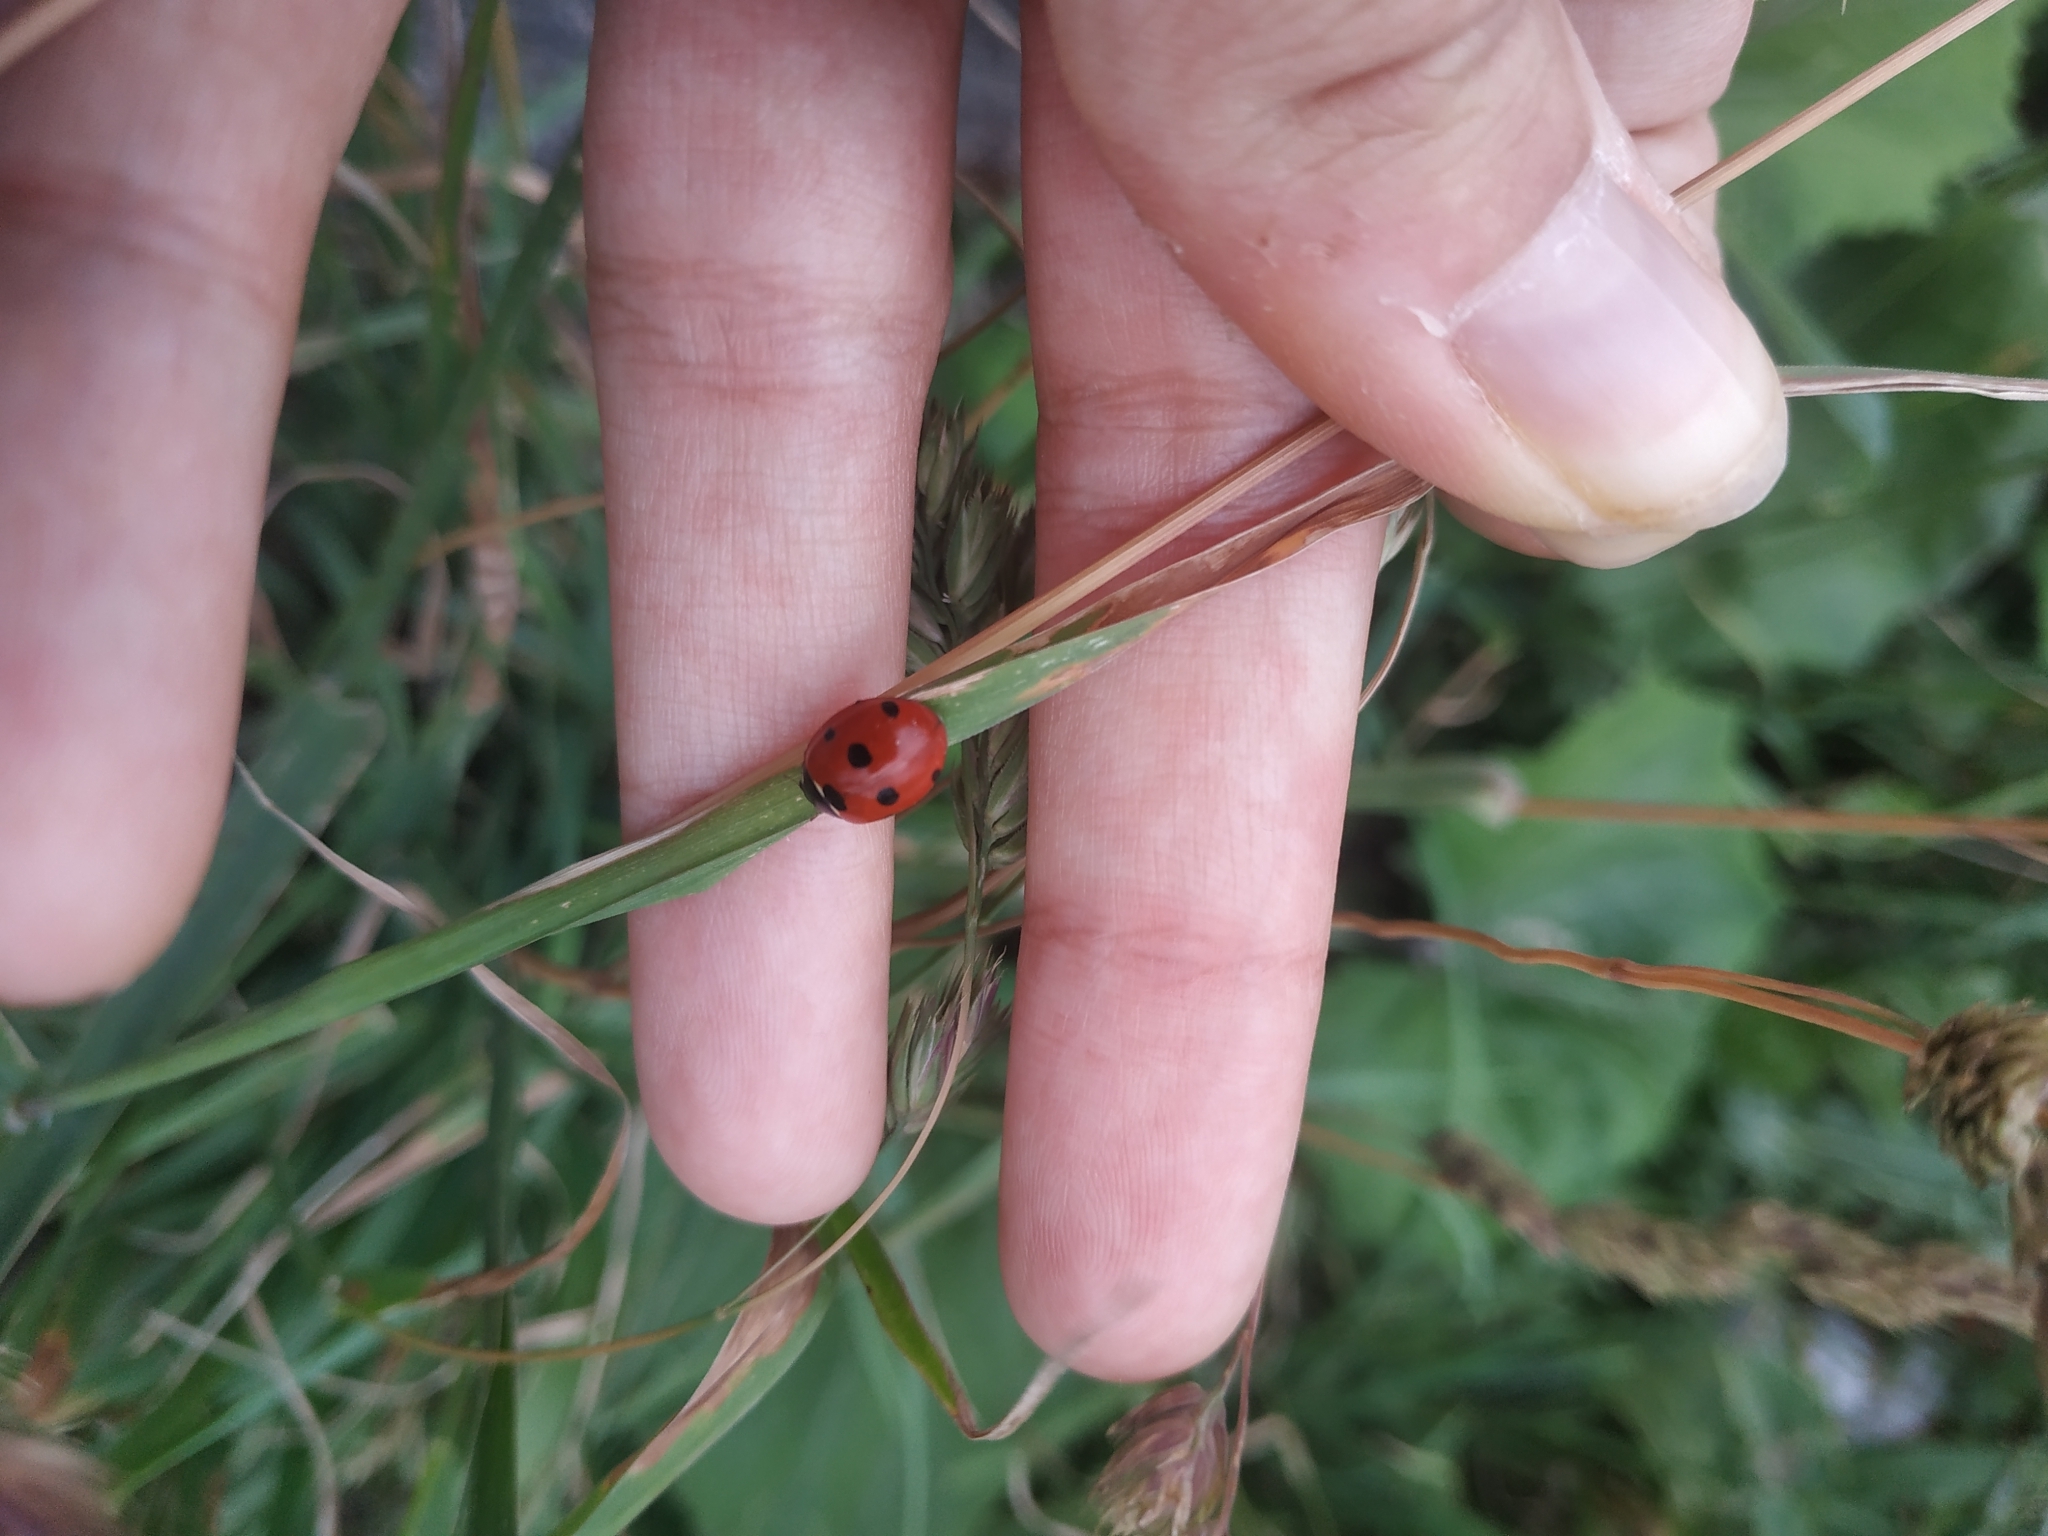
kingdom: Animalia
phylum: Arthropoda
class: Insecta
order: Coleoptera
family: Coccinellidae
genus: Coccinella
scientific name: Coccinella septempunctata
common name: Sevenspotted lady beetle
